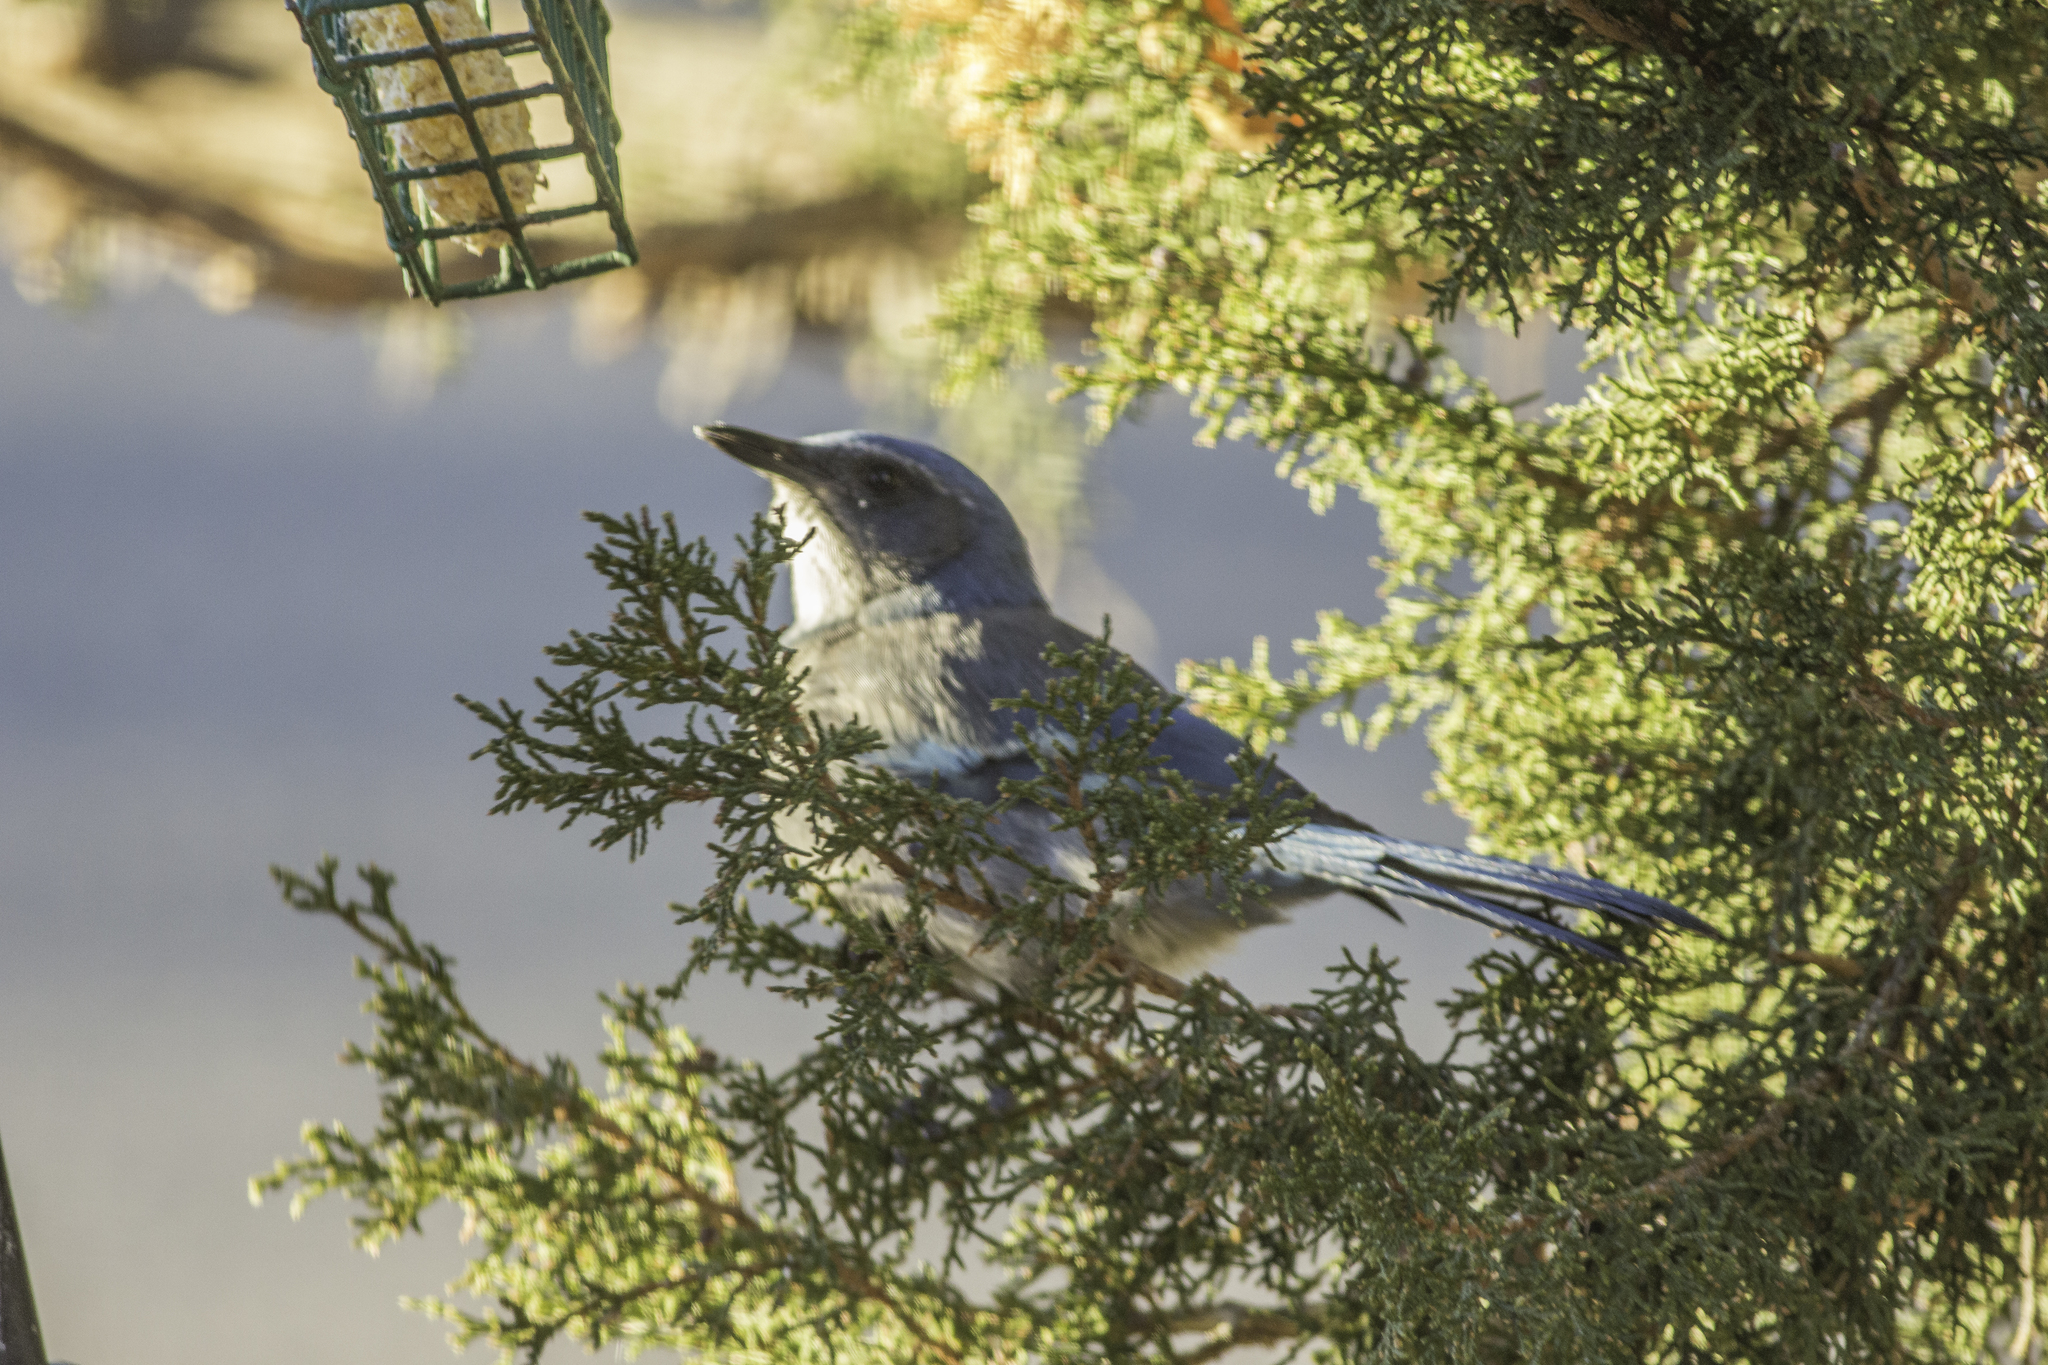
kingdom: Animalia
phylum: Chordata
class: Aves
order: Passeriformes
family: Corvidae
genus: Aphelocoma
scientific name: Aphelocoma woodhouseii
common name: Woodhouse's scrub-jay
